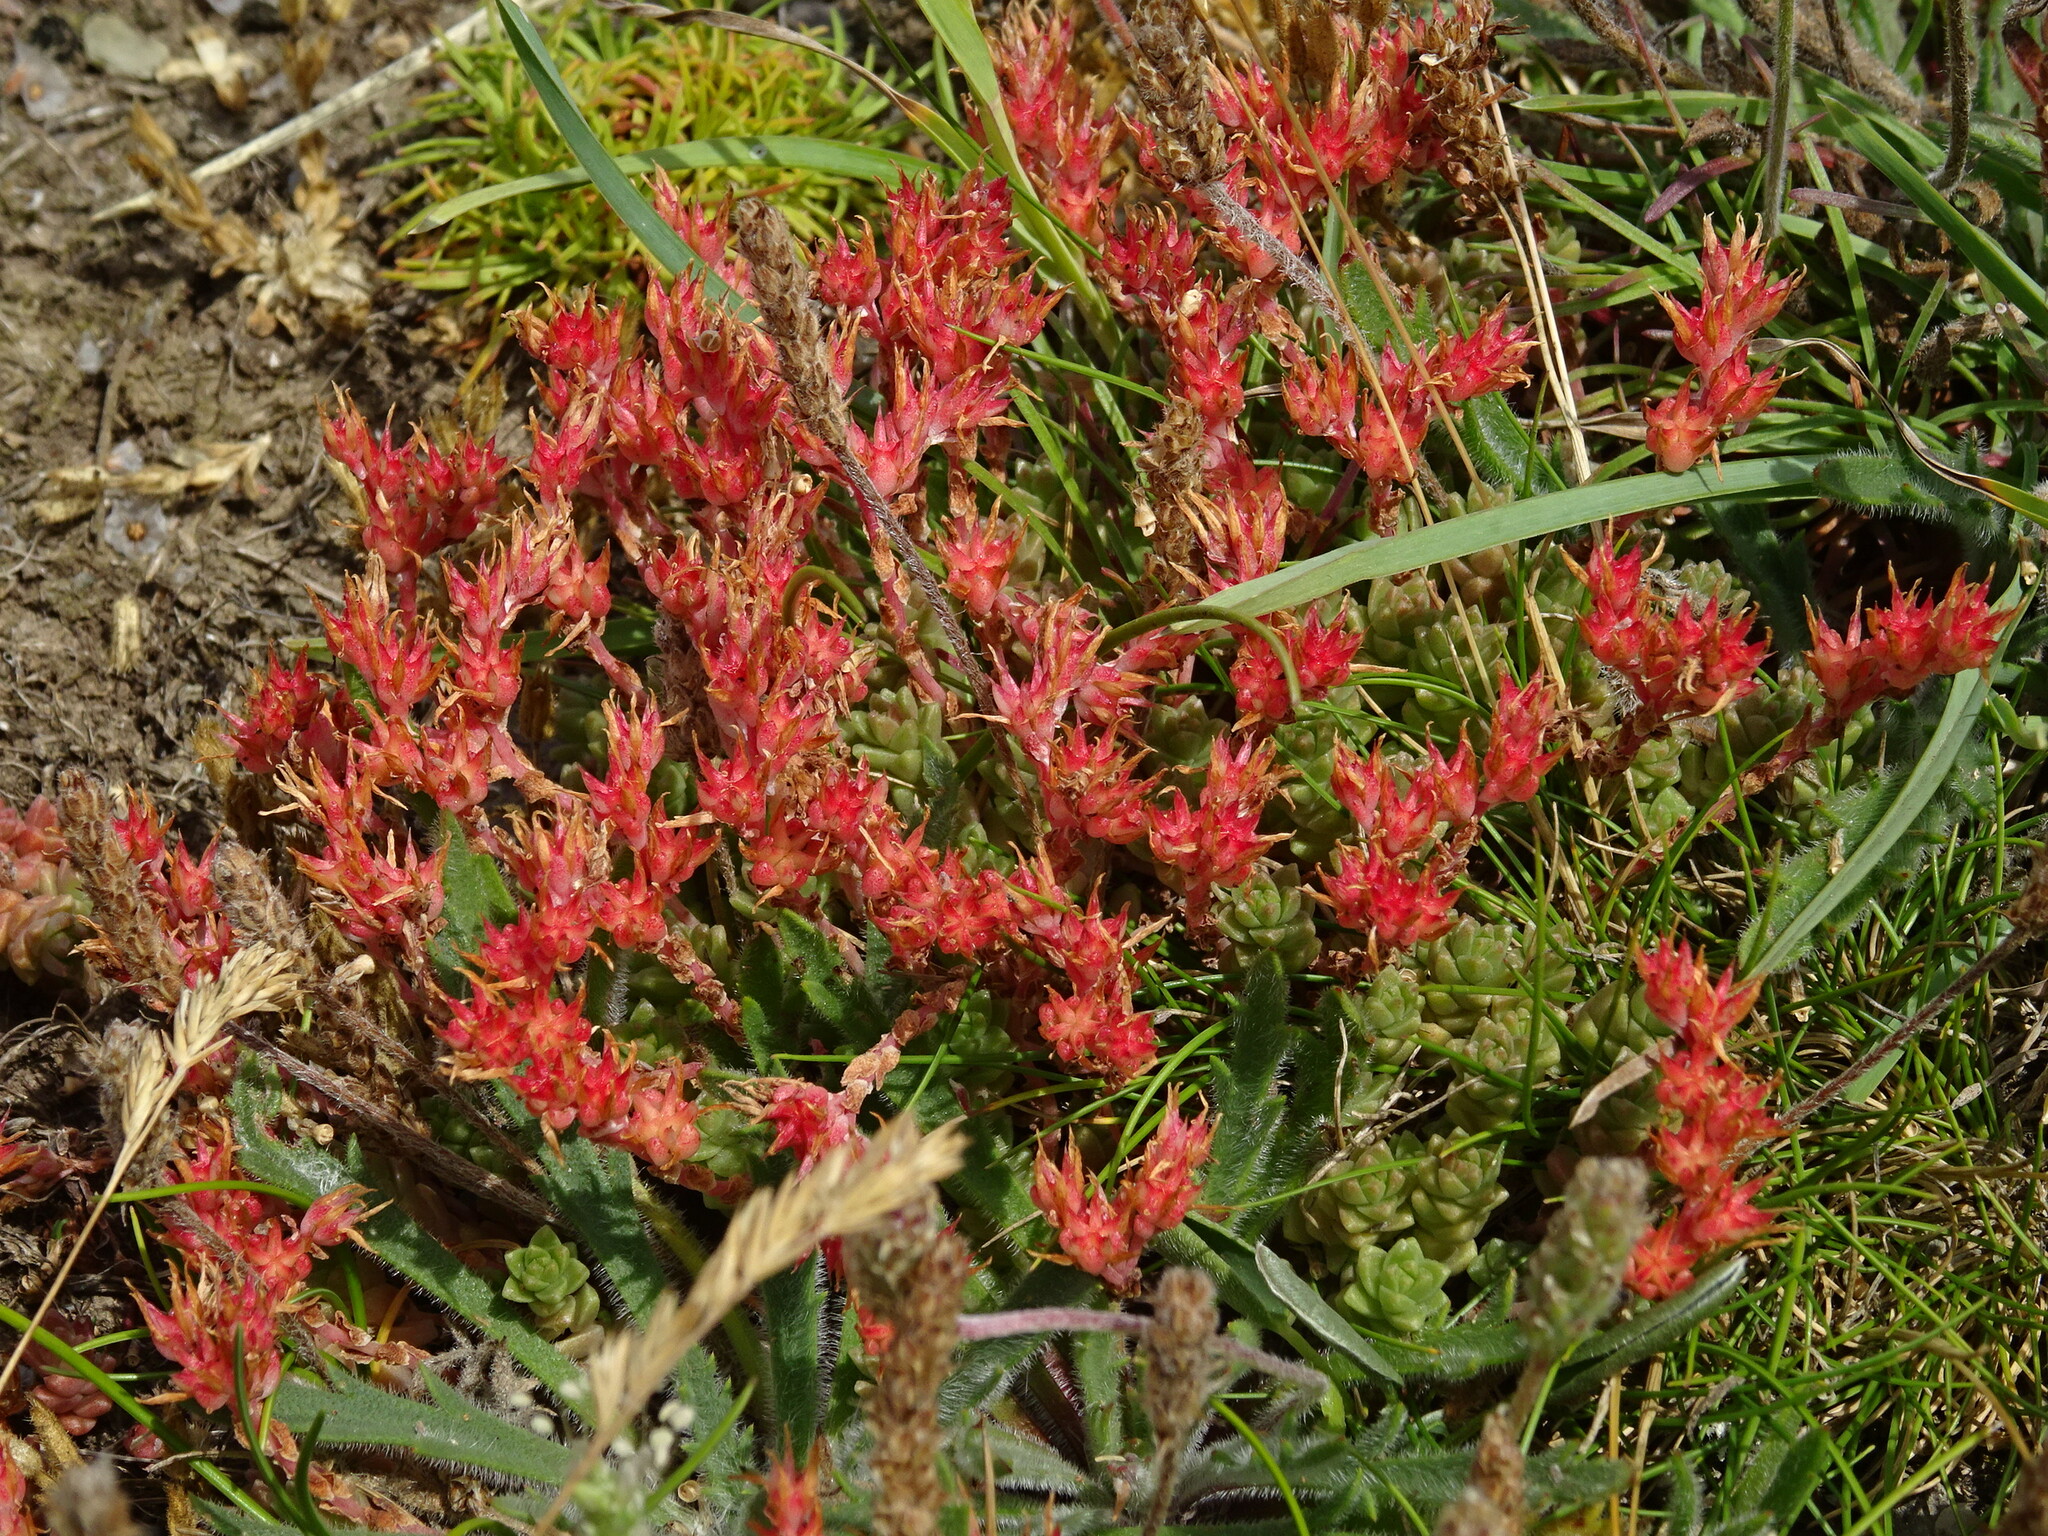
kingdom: Plantae
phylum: Tracheophyta
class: Magnoliopsida
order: Saxifragales
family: Crassulaceae
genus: Sedum
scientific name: Sedum anglicum
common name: English stonecrop
